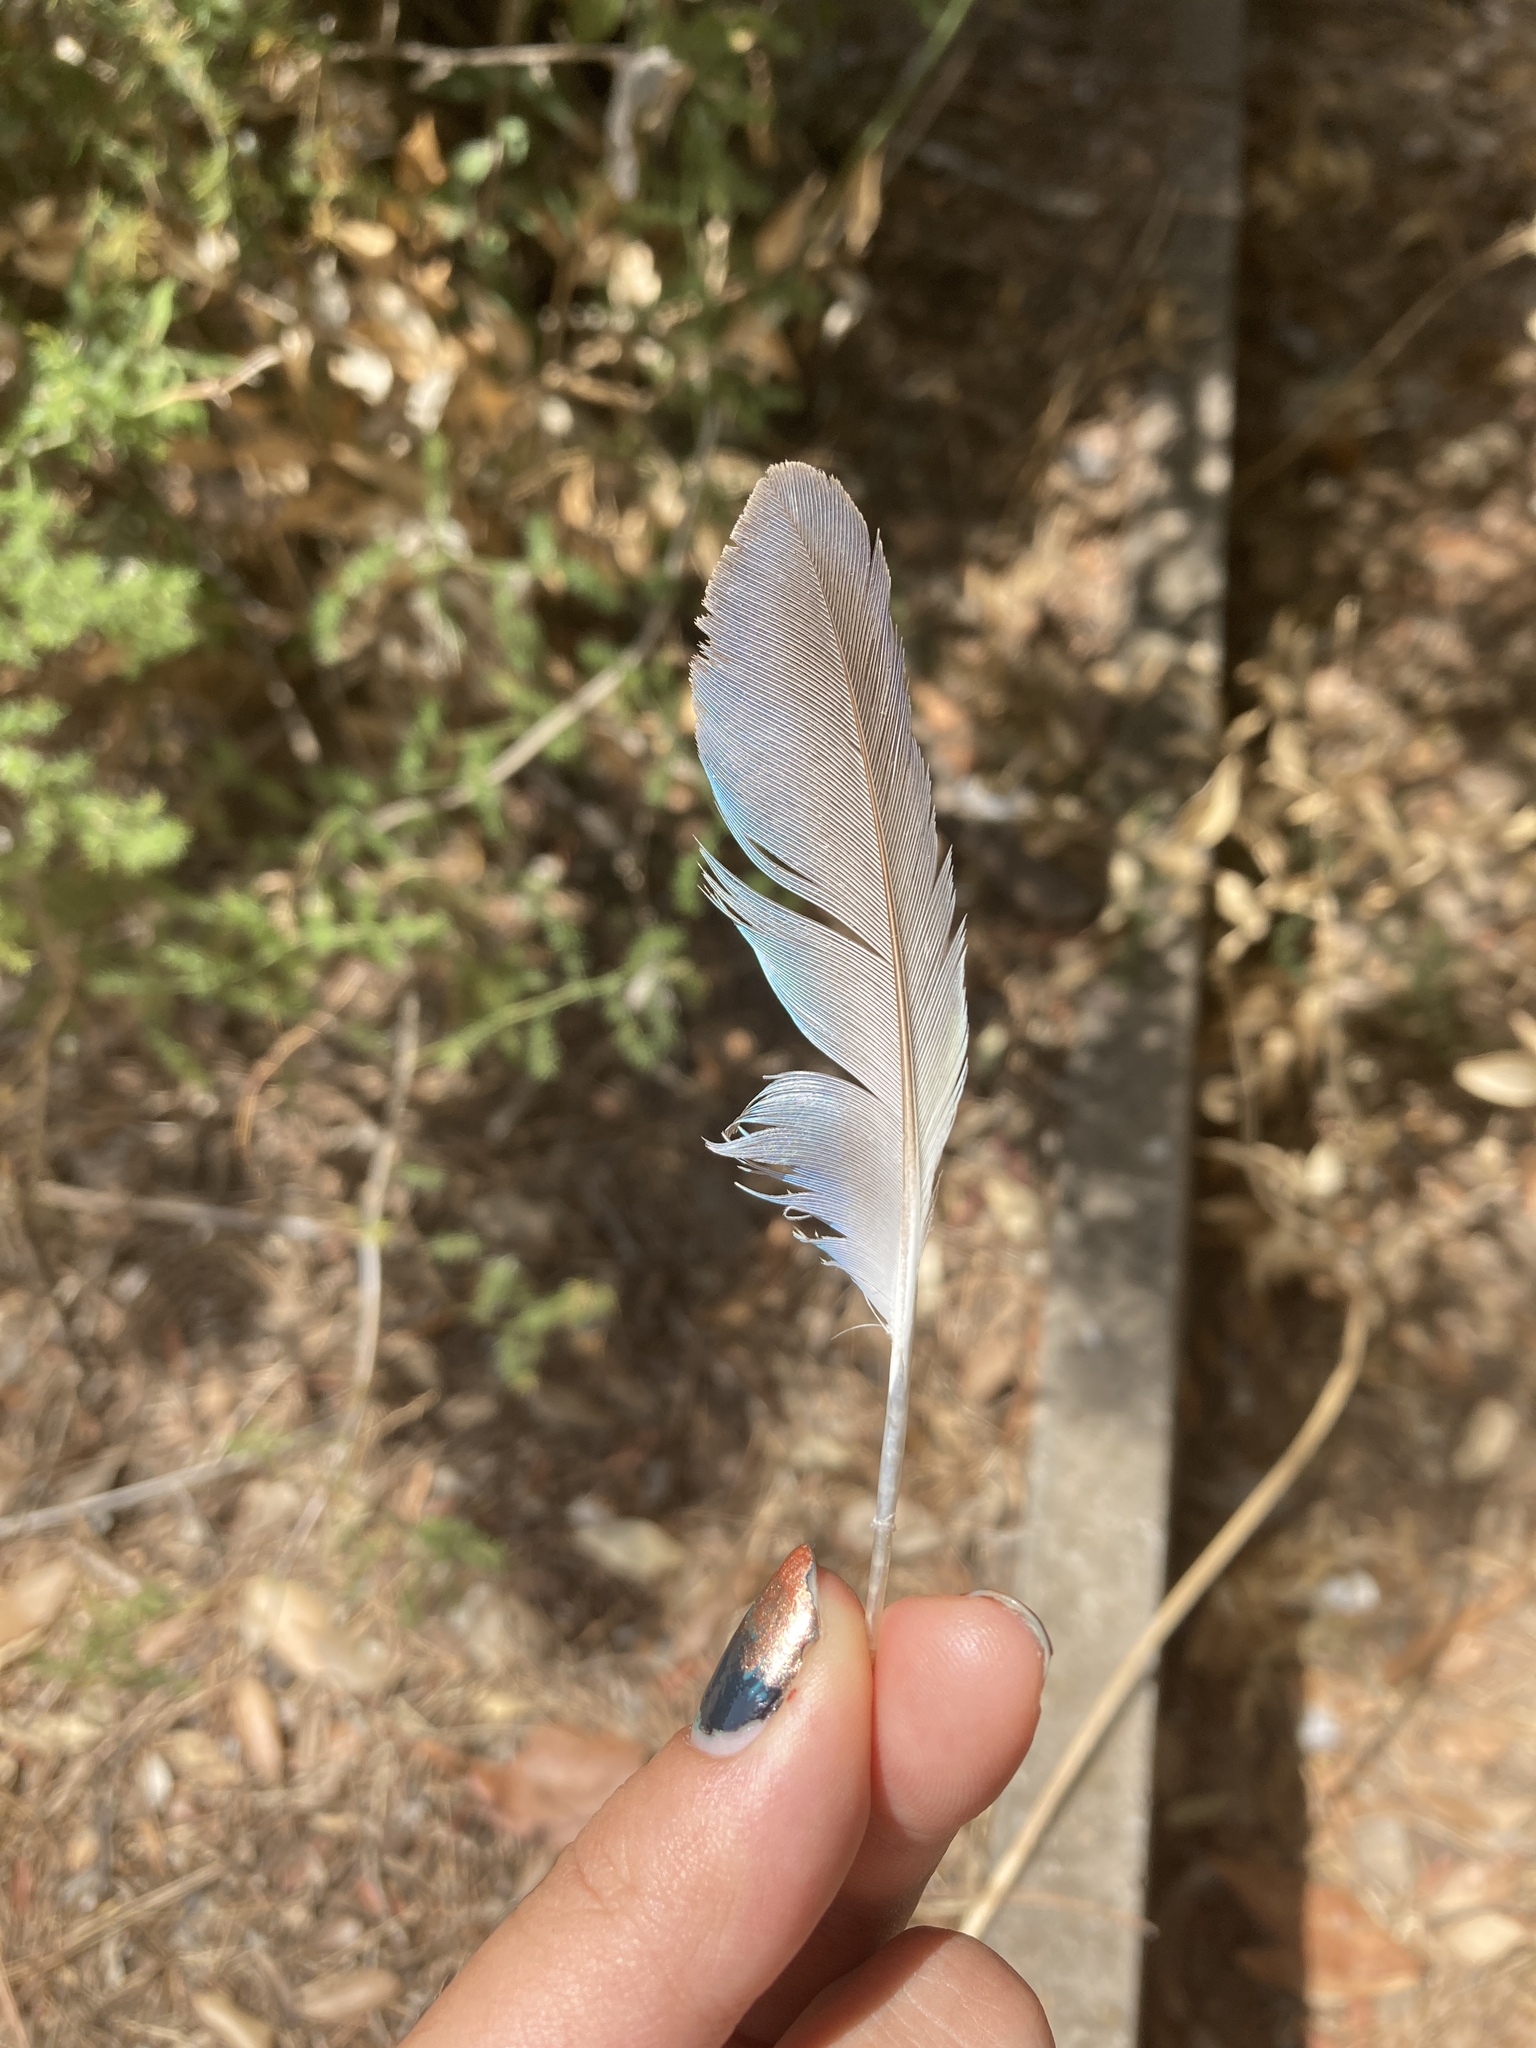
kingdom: Animalia
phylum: Chordata
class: Aves
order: Psittaciformes
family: Psittacidae
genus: Myiopsitta
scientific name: Myiopsitta monachus
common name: Monk parakeet
